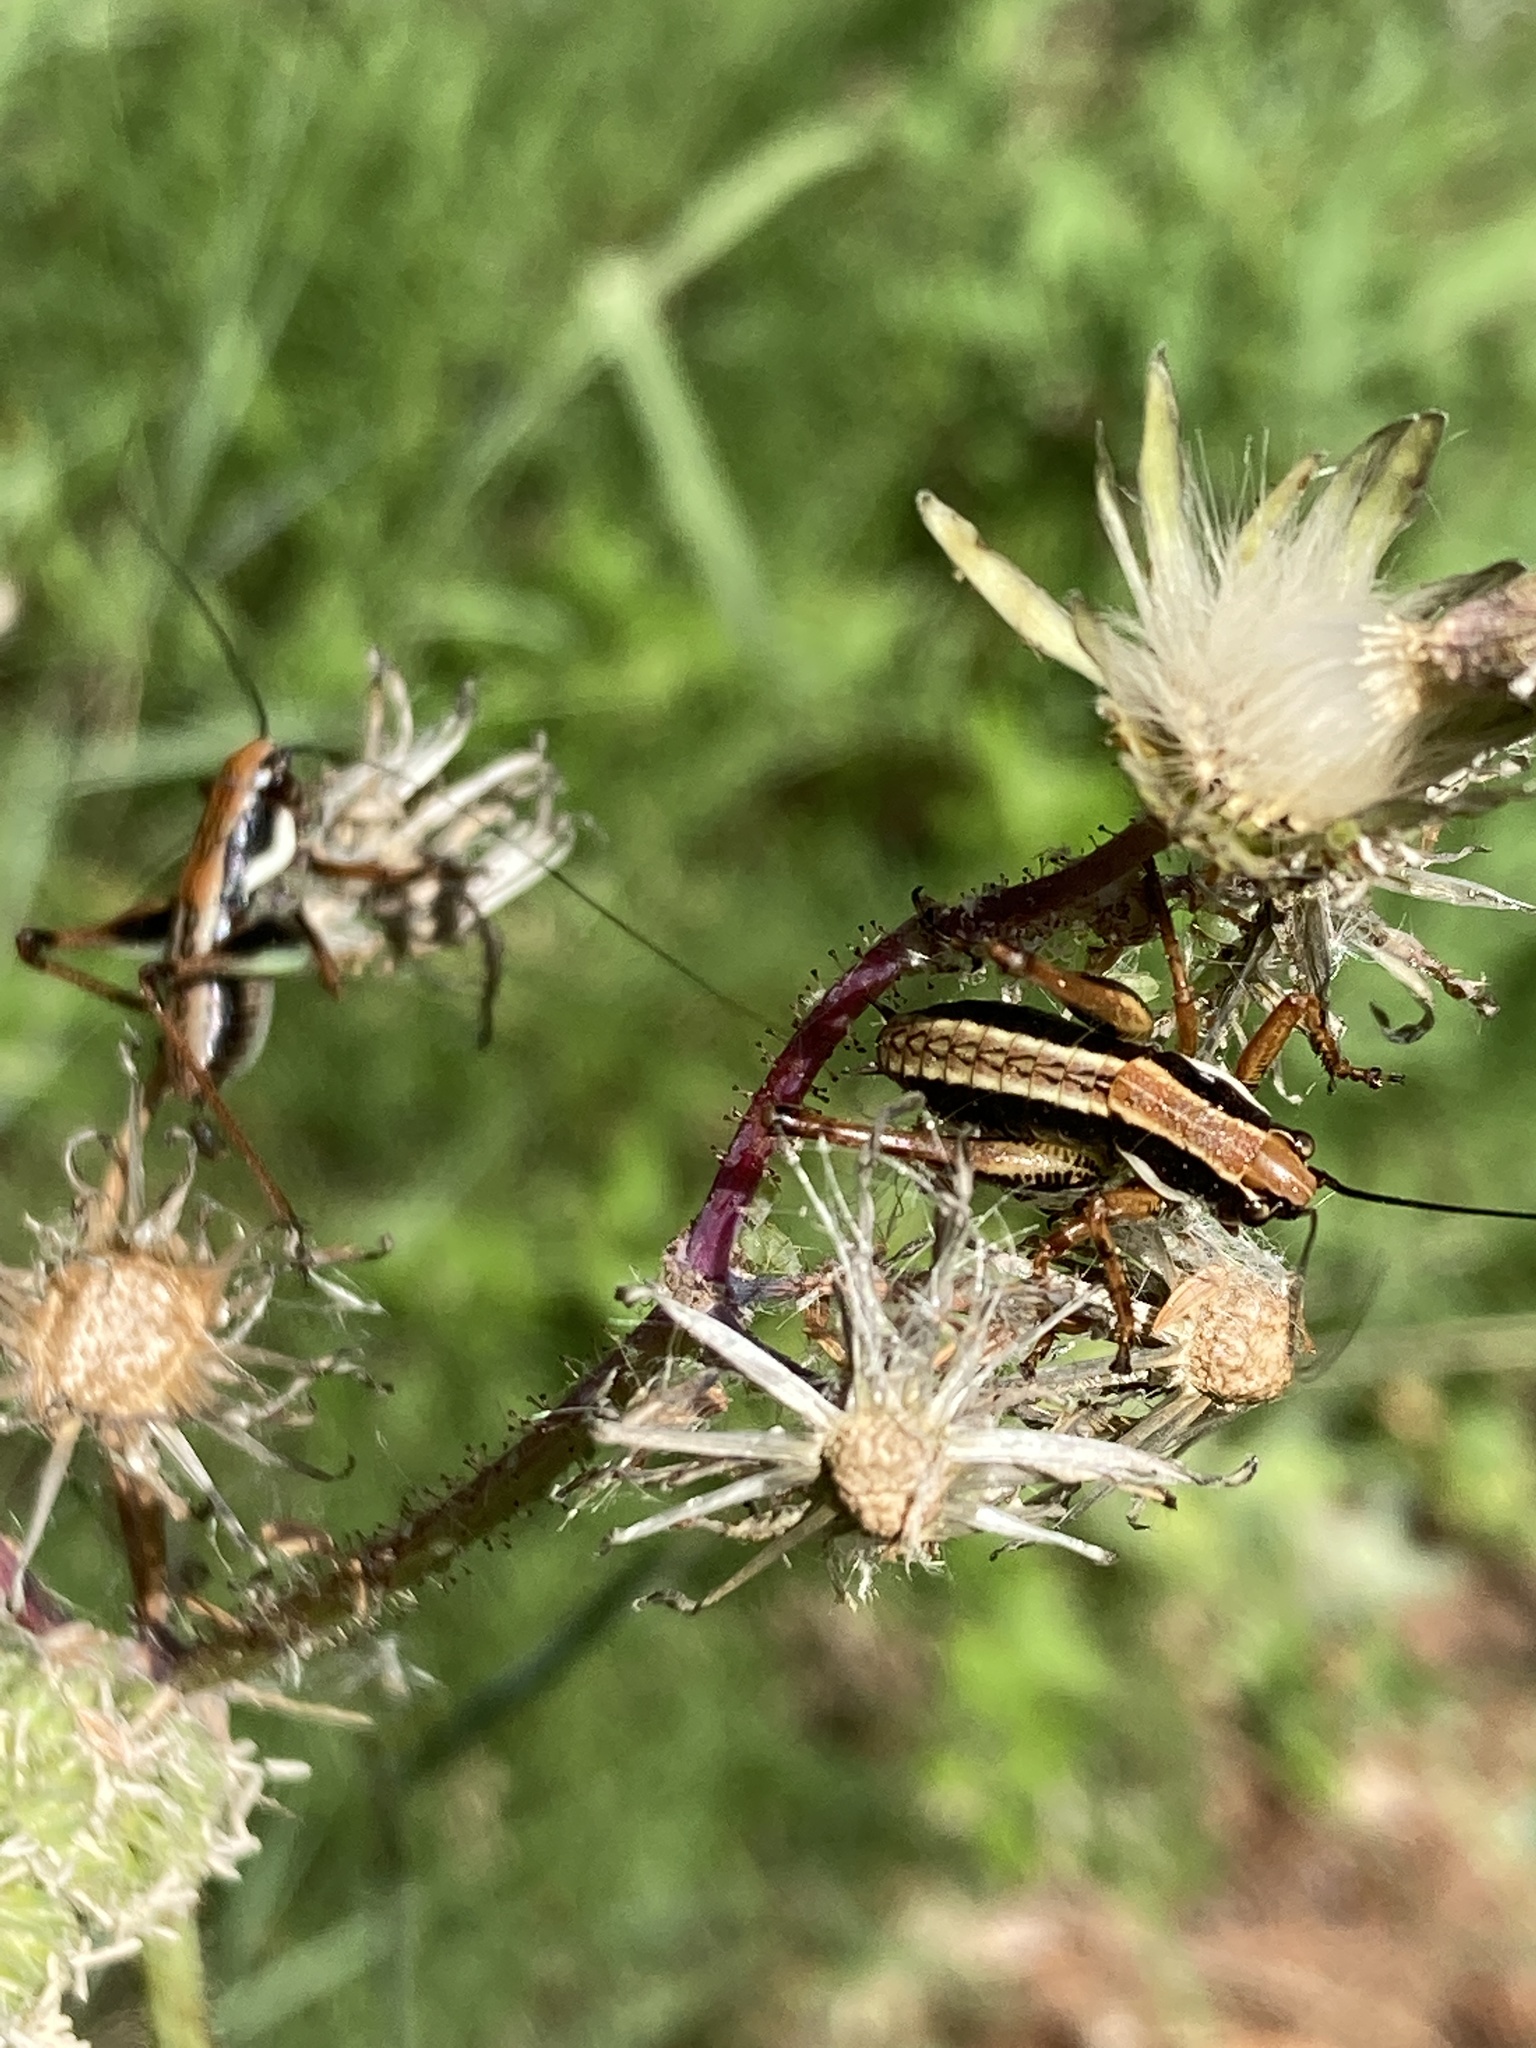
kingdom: Animalia
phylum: Arthropoda
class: Insecta
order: Orthoptera
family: Tettigoniidae
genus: Eupholidoptera
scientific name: Eupholidoptera schmidti
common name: Schmidt's marbled bush-cricket
